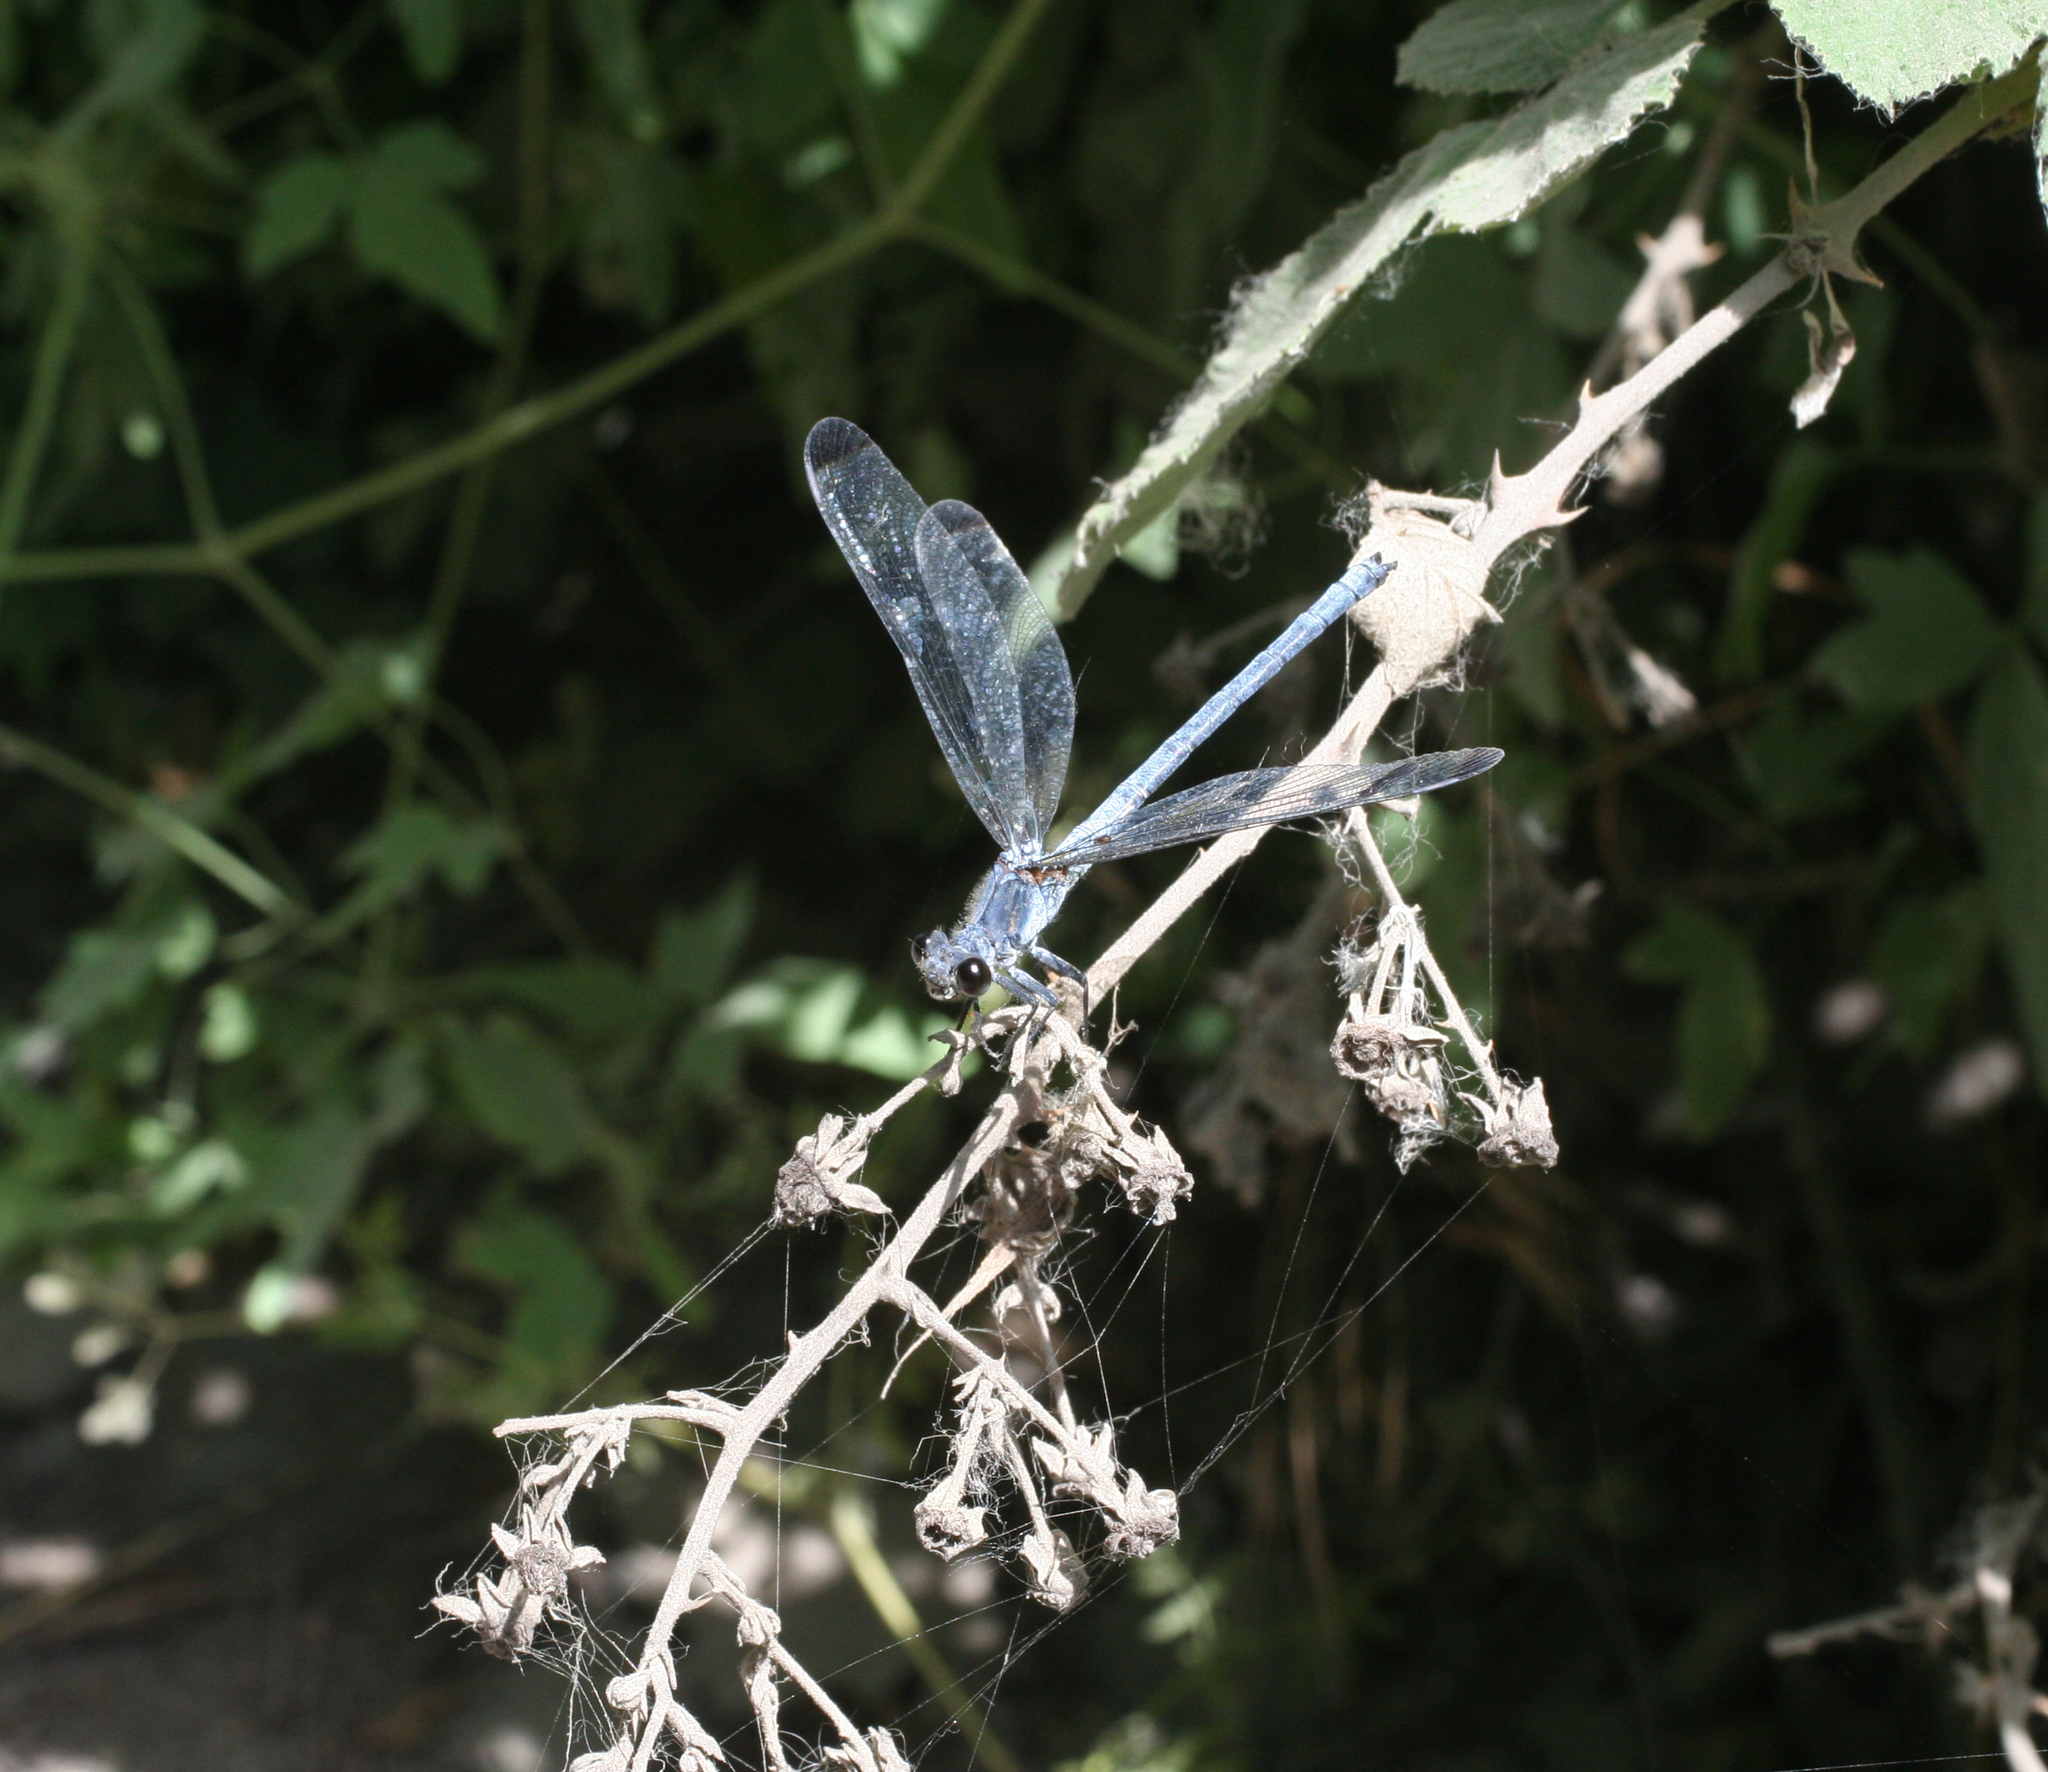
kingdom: Animalia
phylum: Arthropoda
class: Insecta
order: Odonata
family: Euphaeidae
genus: Epallage
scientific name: Epallage fatime
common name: Odalisque
